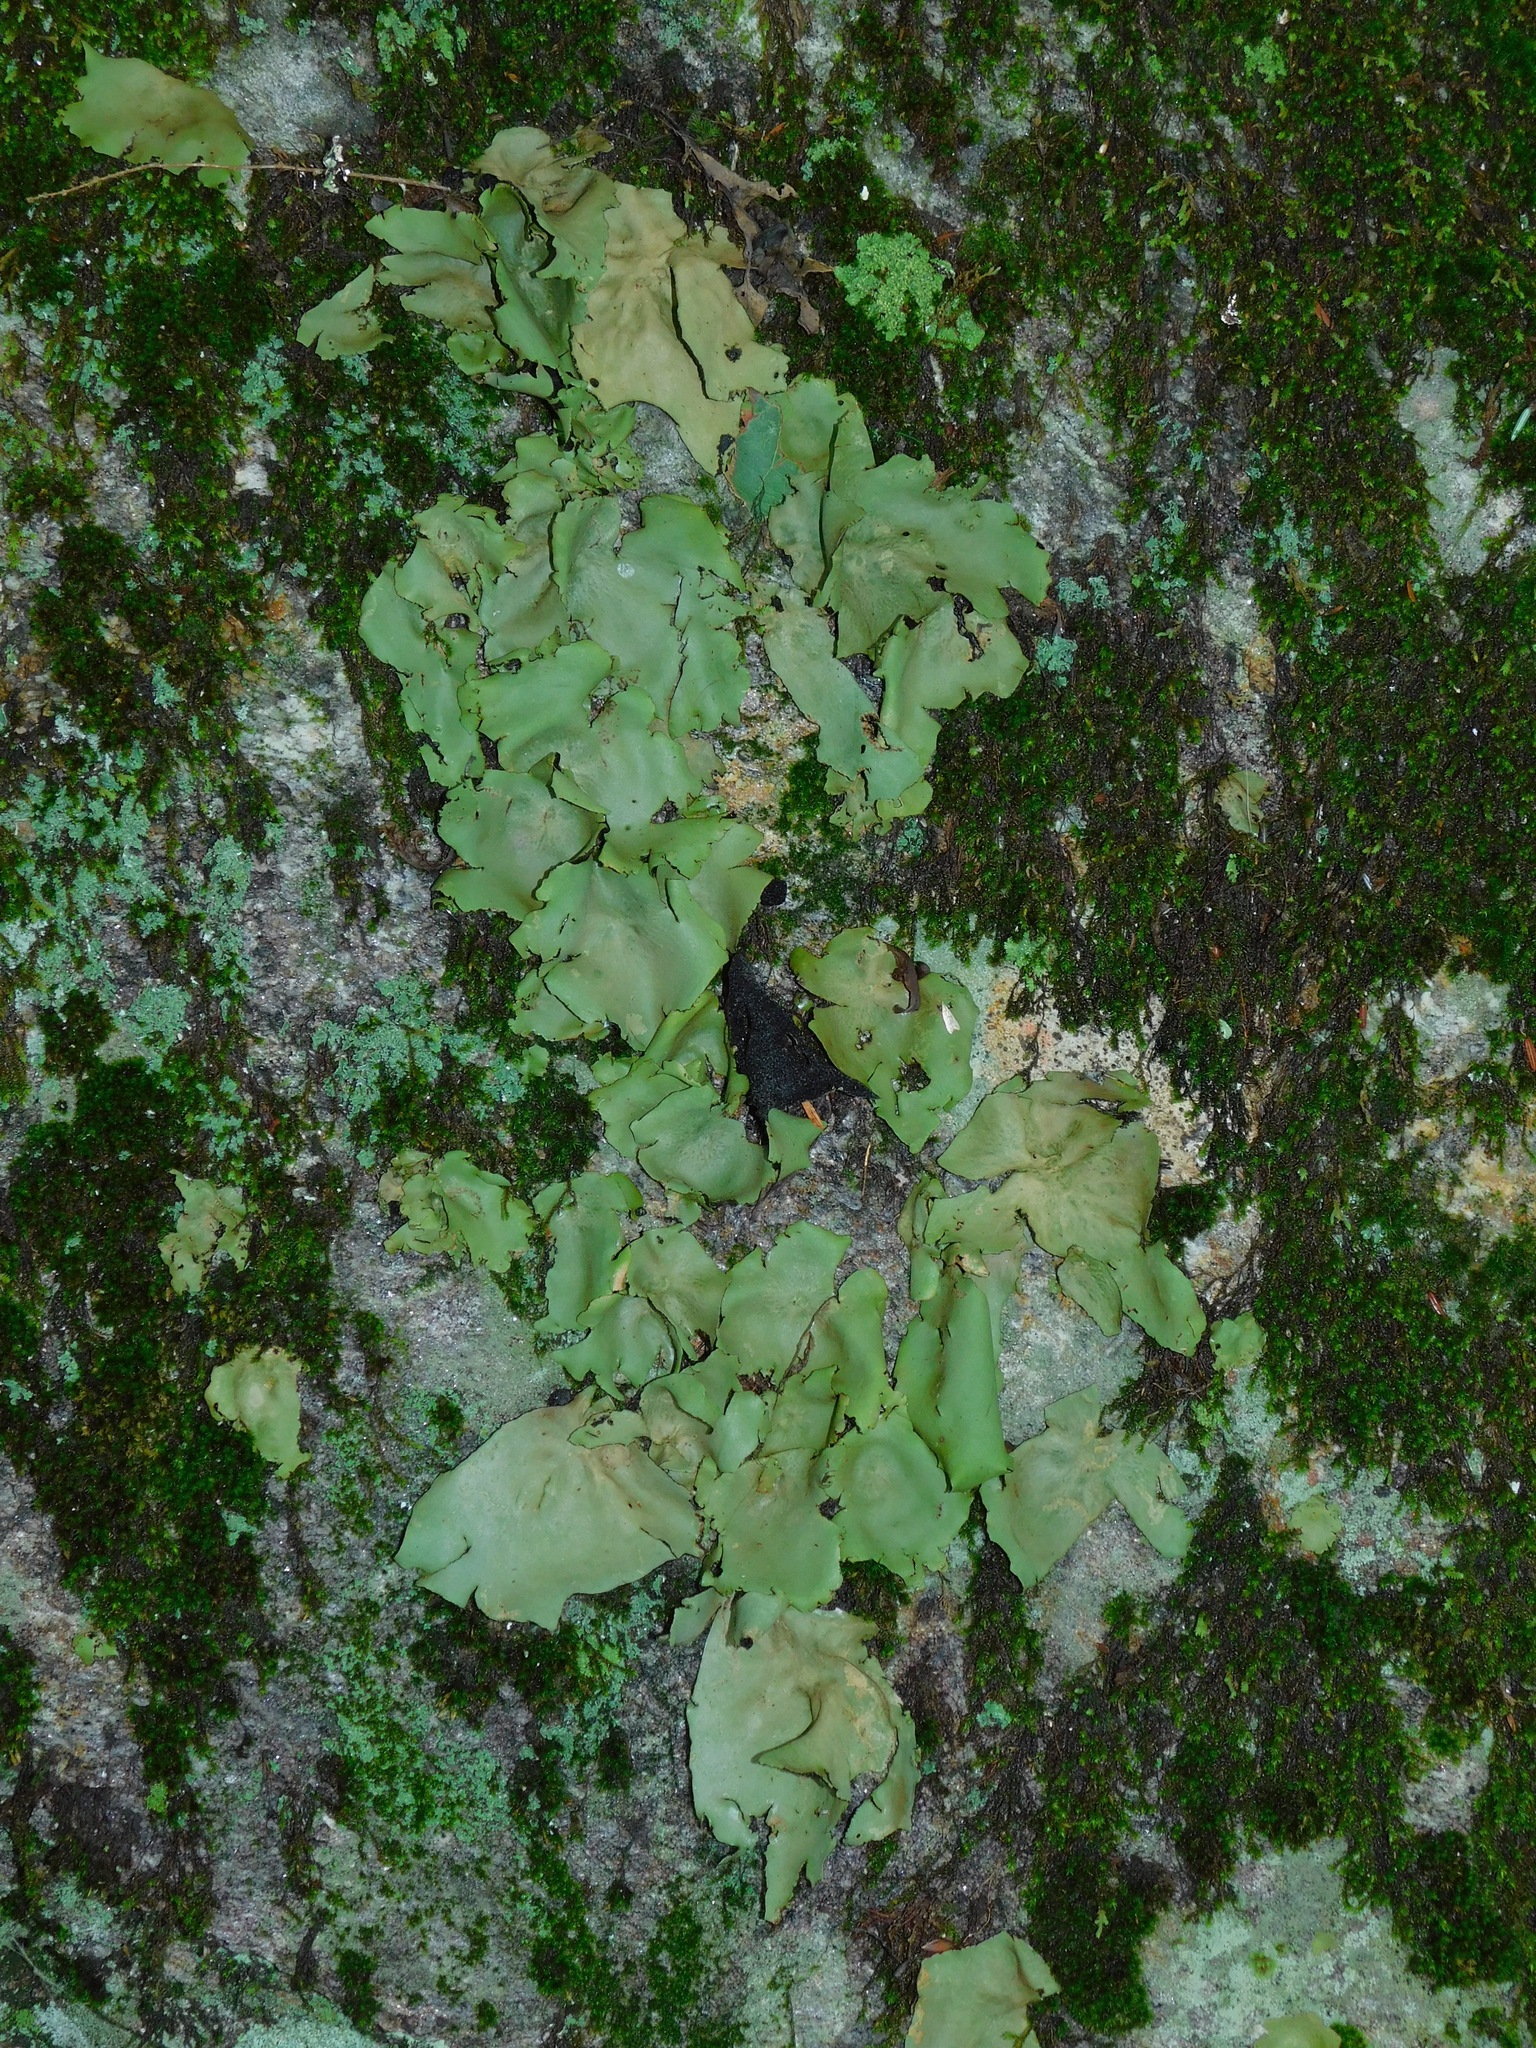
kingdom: Fungi
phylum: Ascomycota
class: Lecanoromycetes
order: Umbilicariales
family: Umbilicariaceae
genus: Umbilicaria
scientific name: Umbilicaria mammulata
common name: Smooth rock tripe
